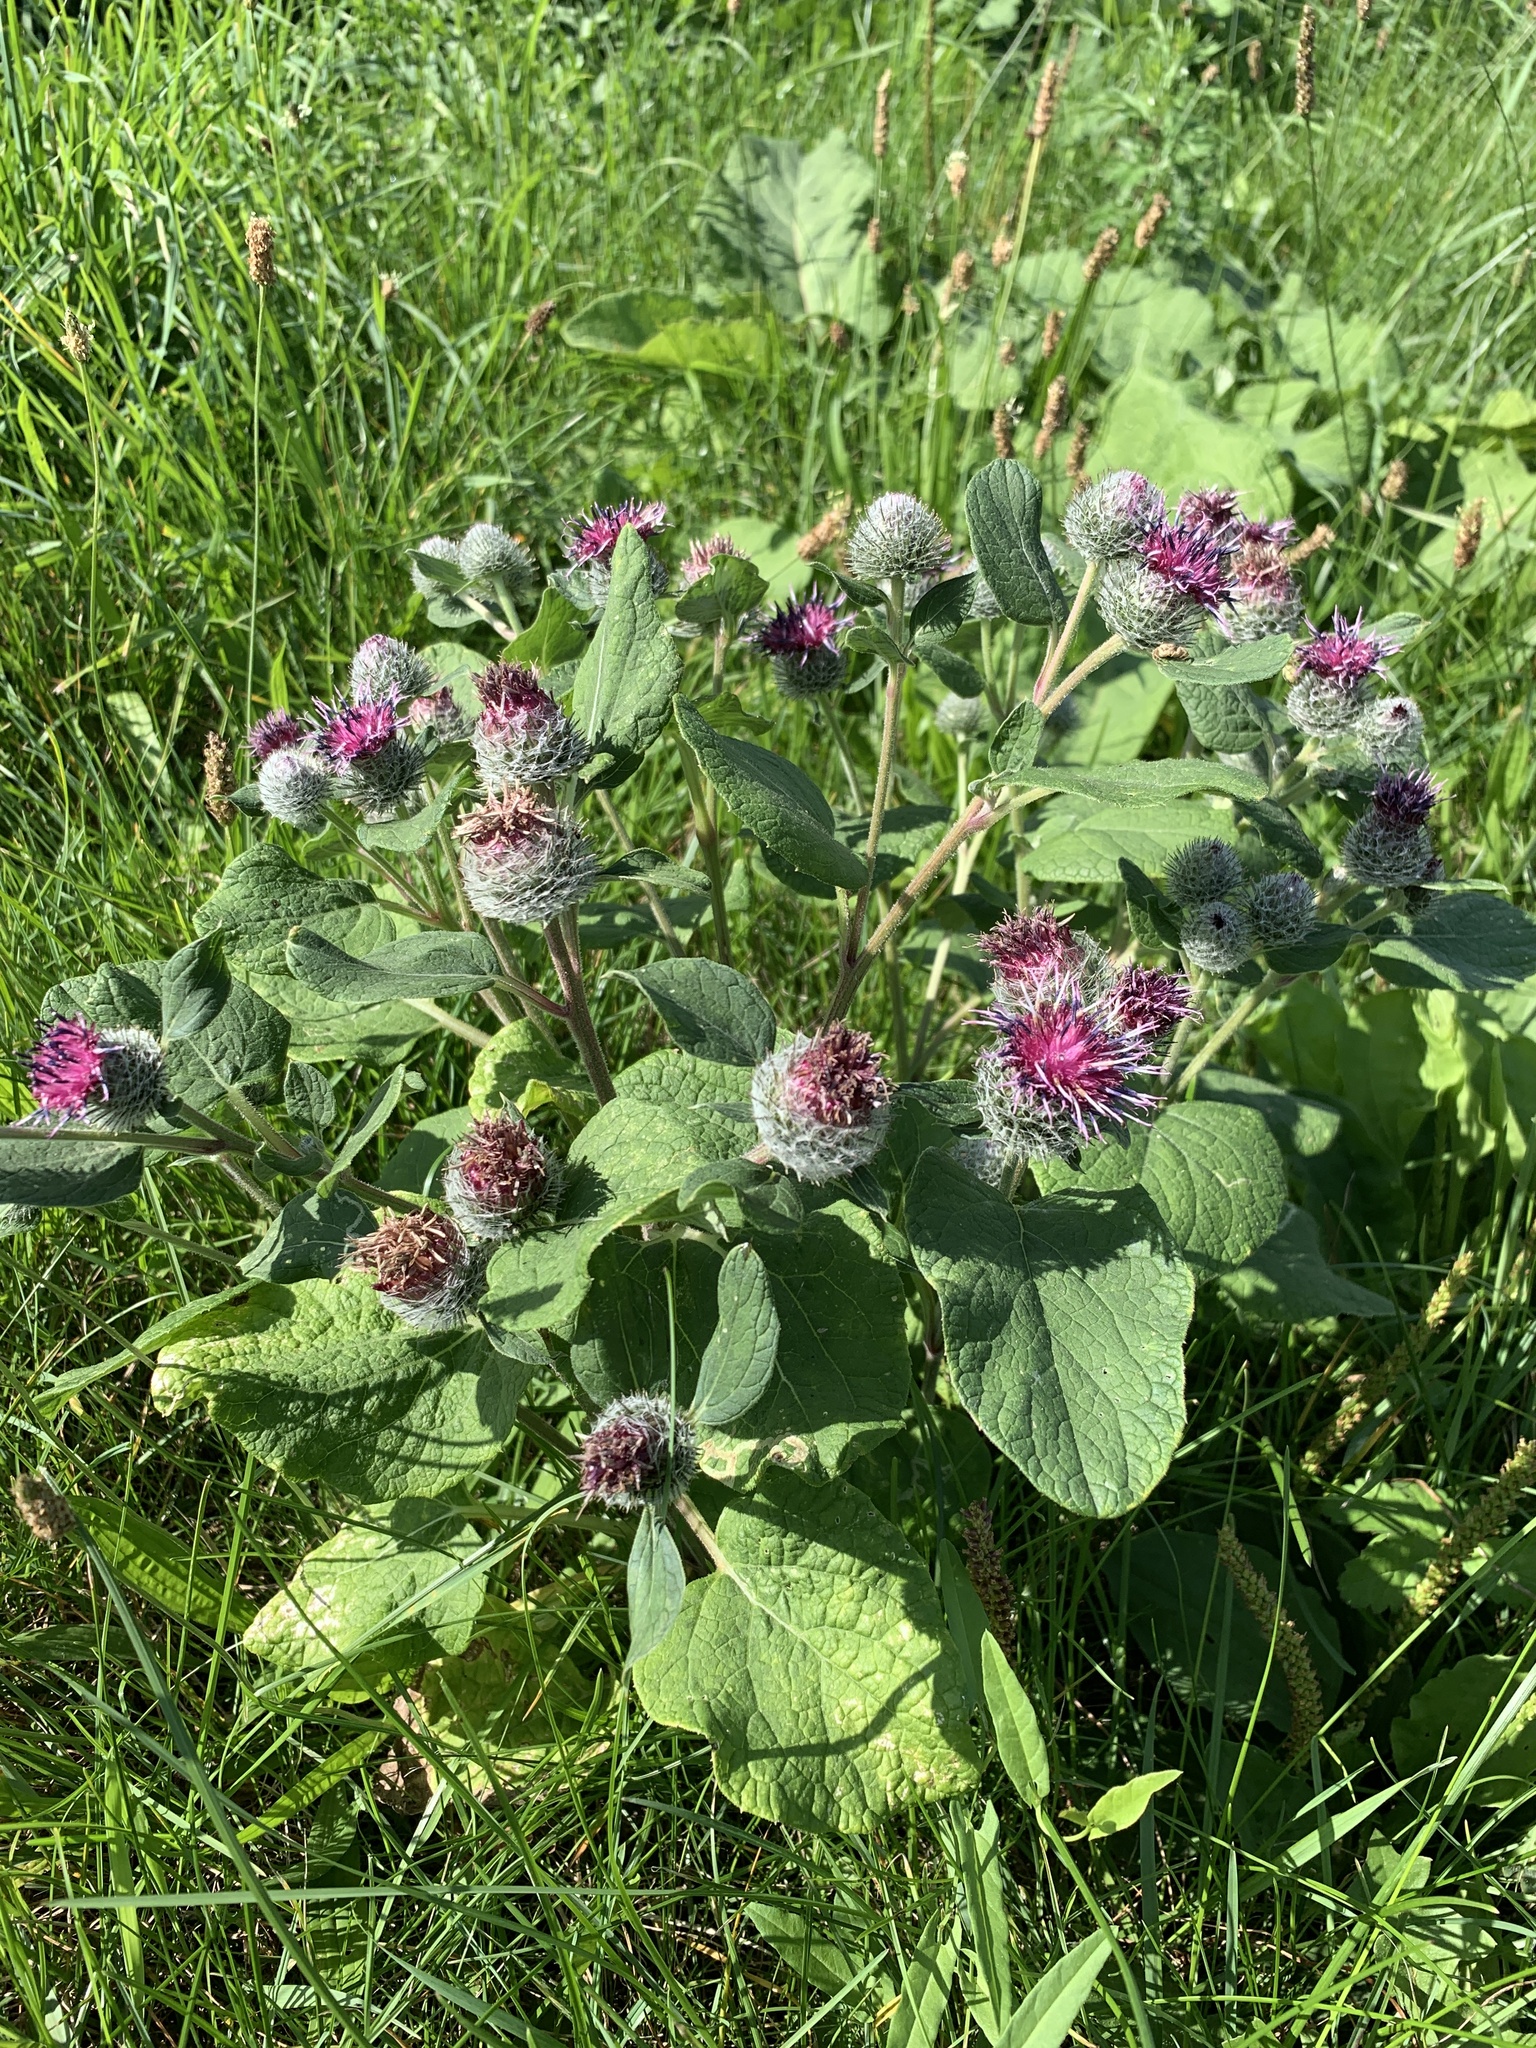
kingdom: Plantae
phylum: Tracheophyta
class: Magnoliopsida
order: Asterales
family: Asteraceae
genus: Arctium
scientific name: Arctium tomentosum
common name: Woolly burdock
